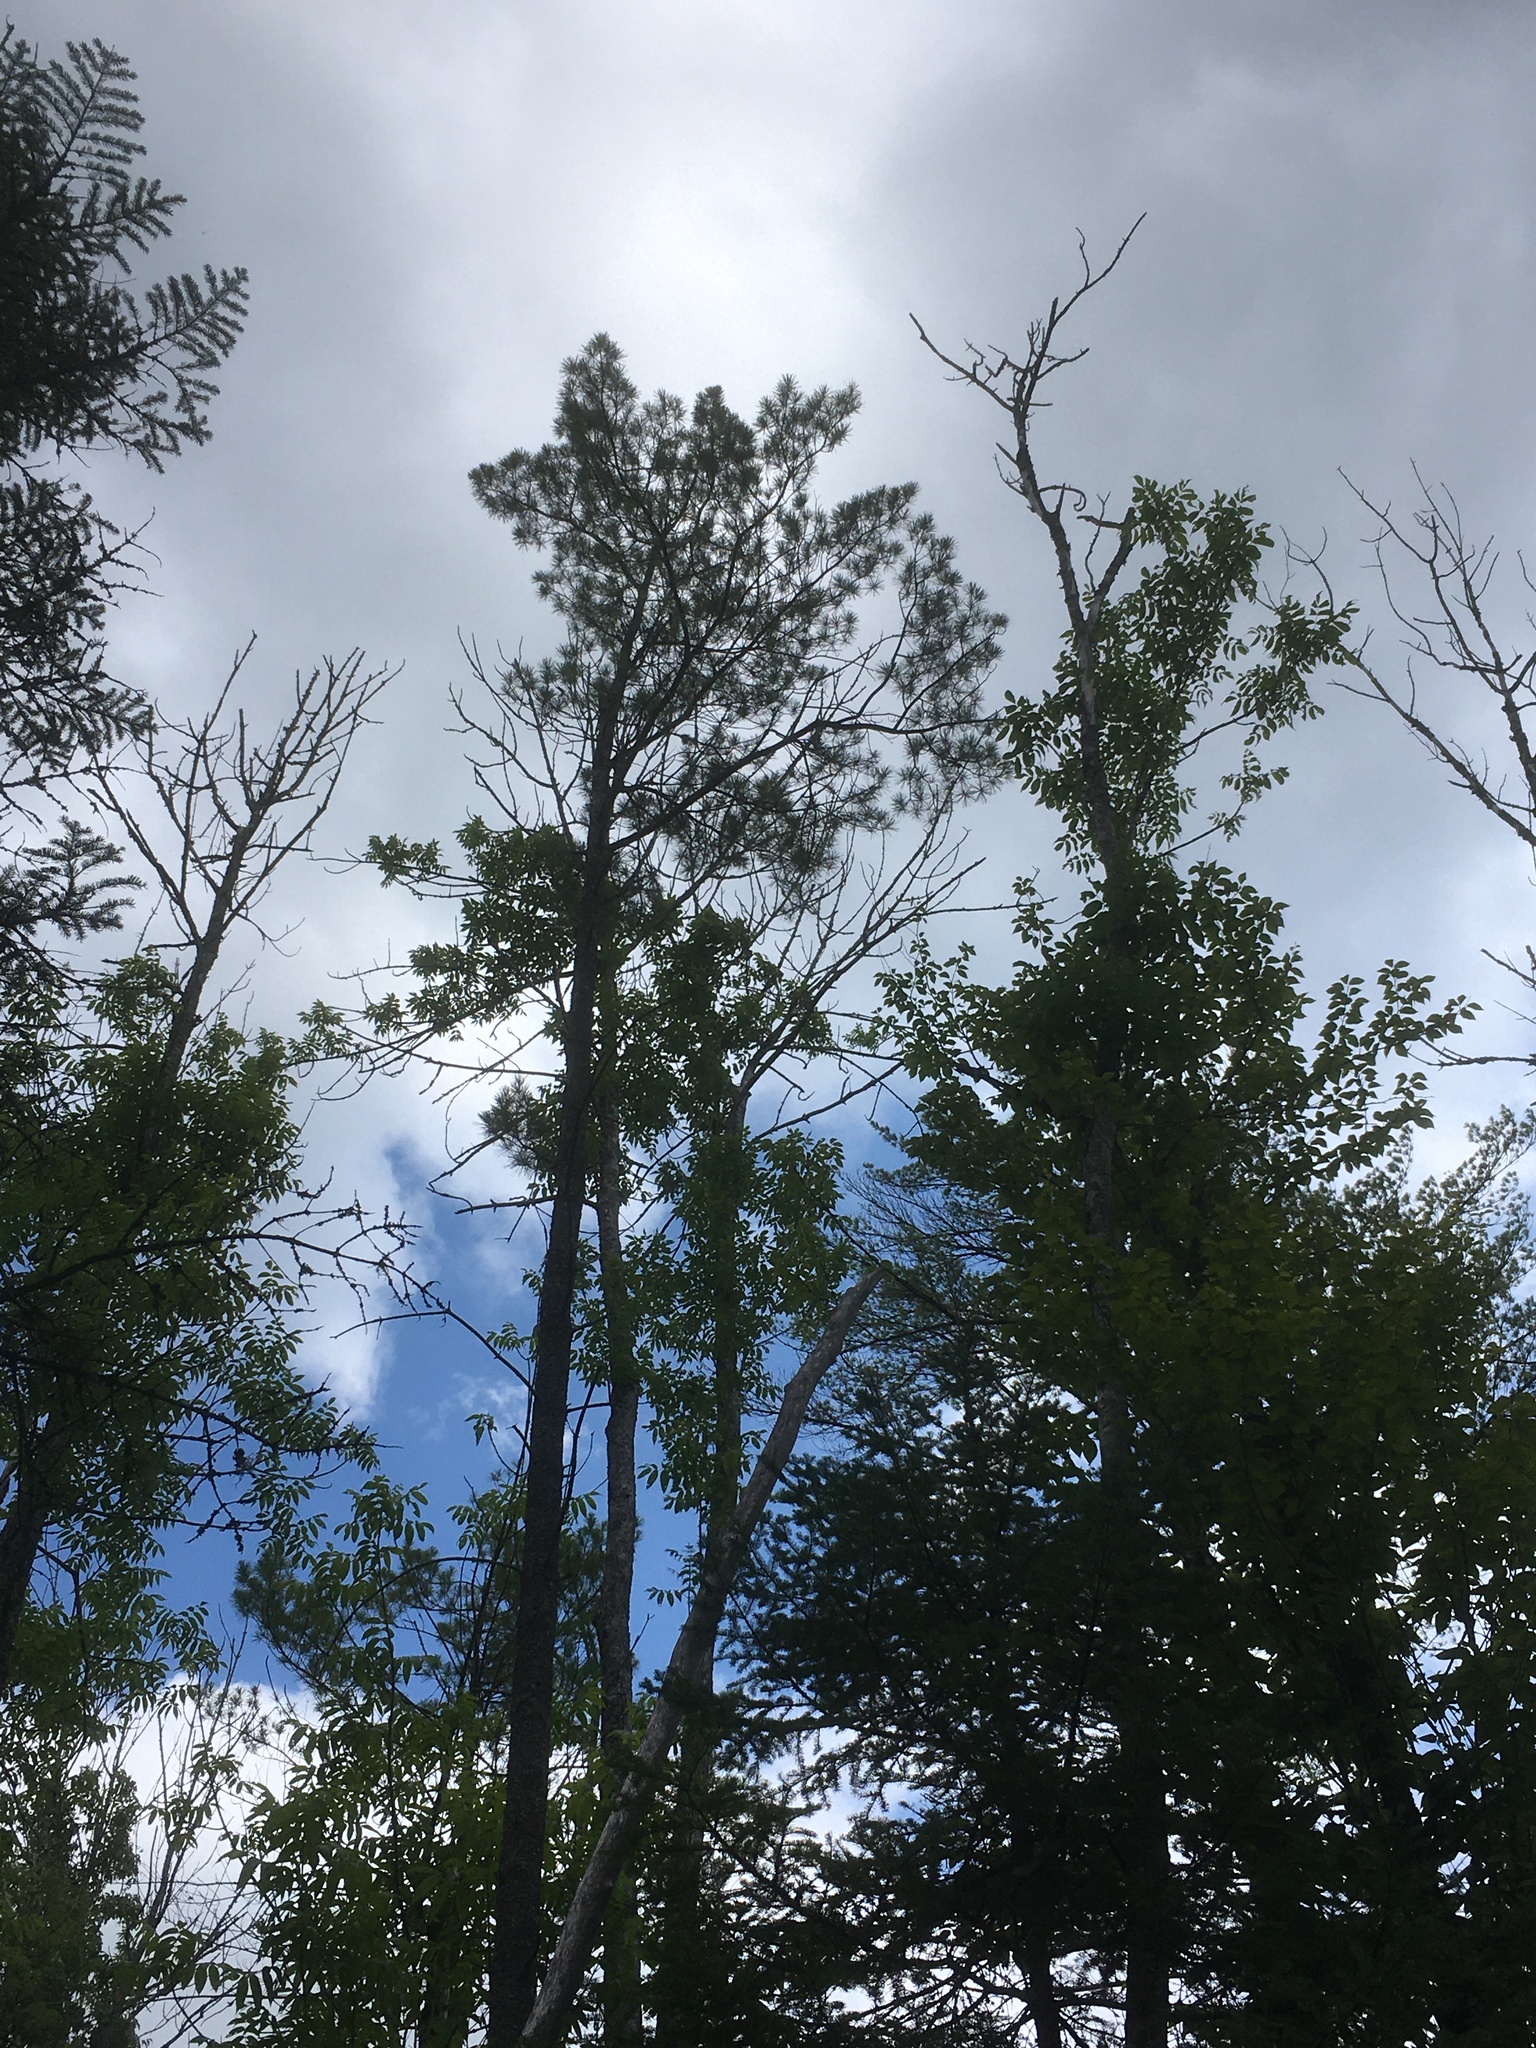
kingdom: Plantae
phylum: Tracheophyta
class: Pinopsida
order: Pinales
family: Pinaceae
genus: Pinus
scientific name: Pinus strobus
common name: Weymouth pine
